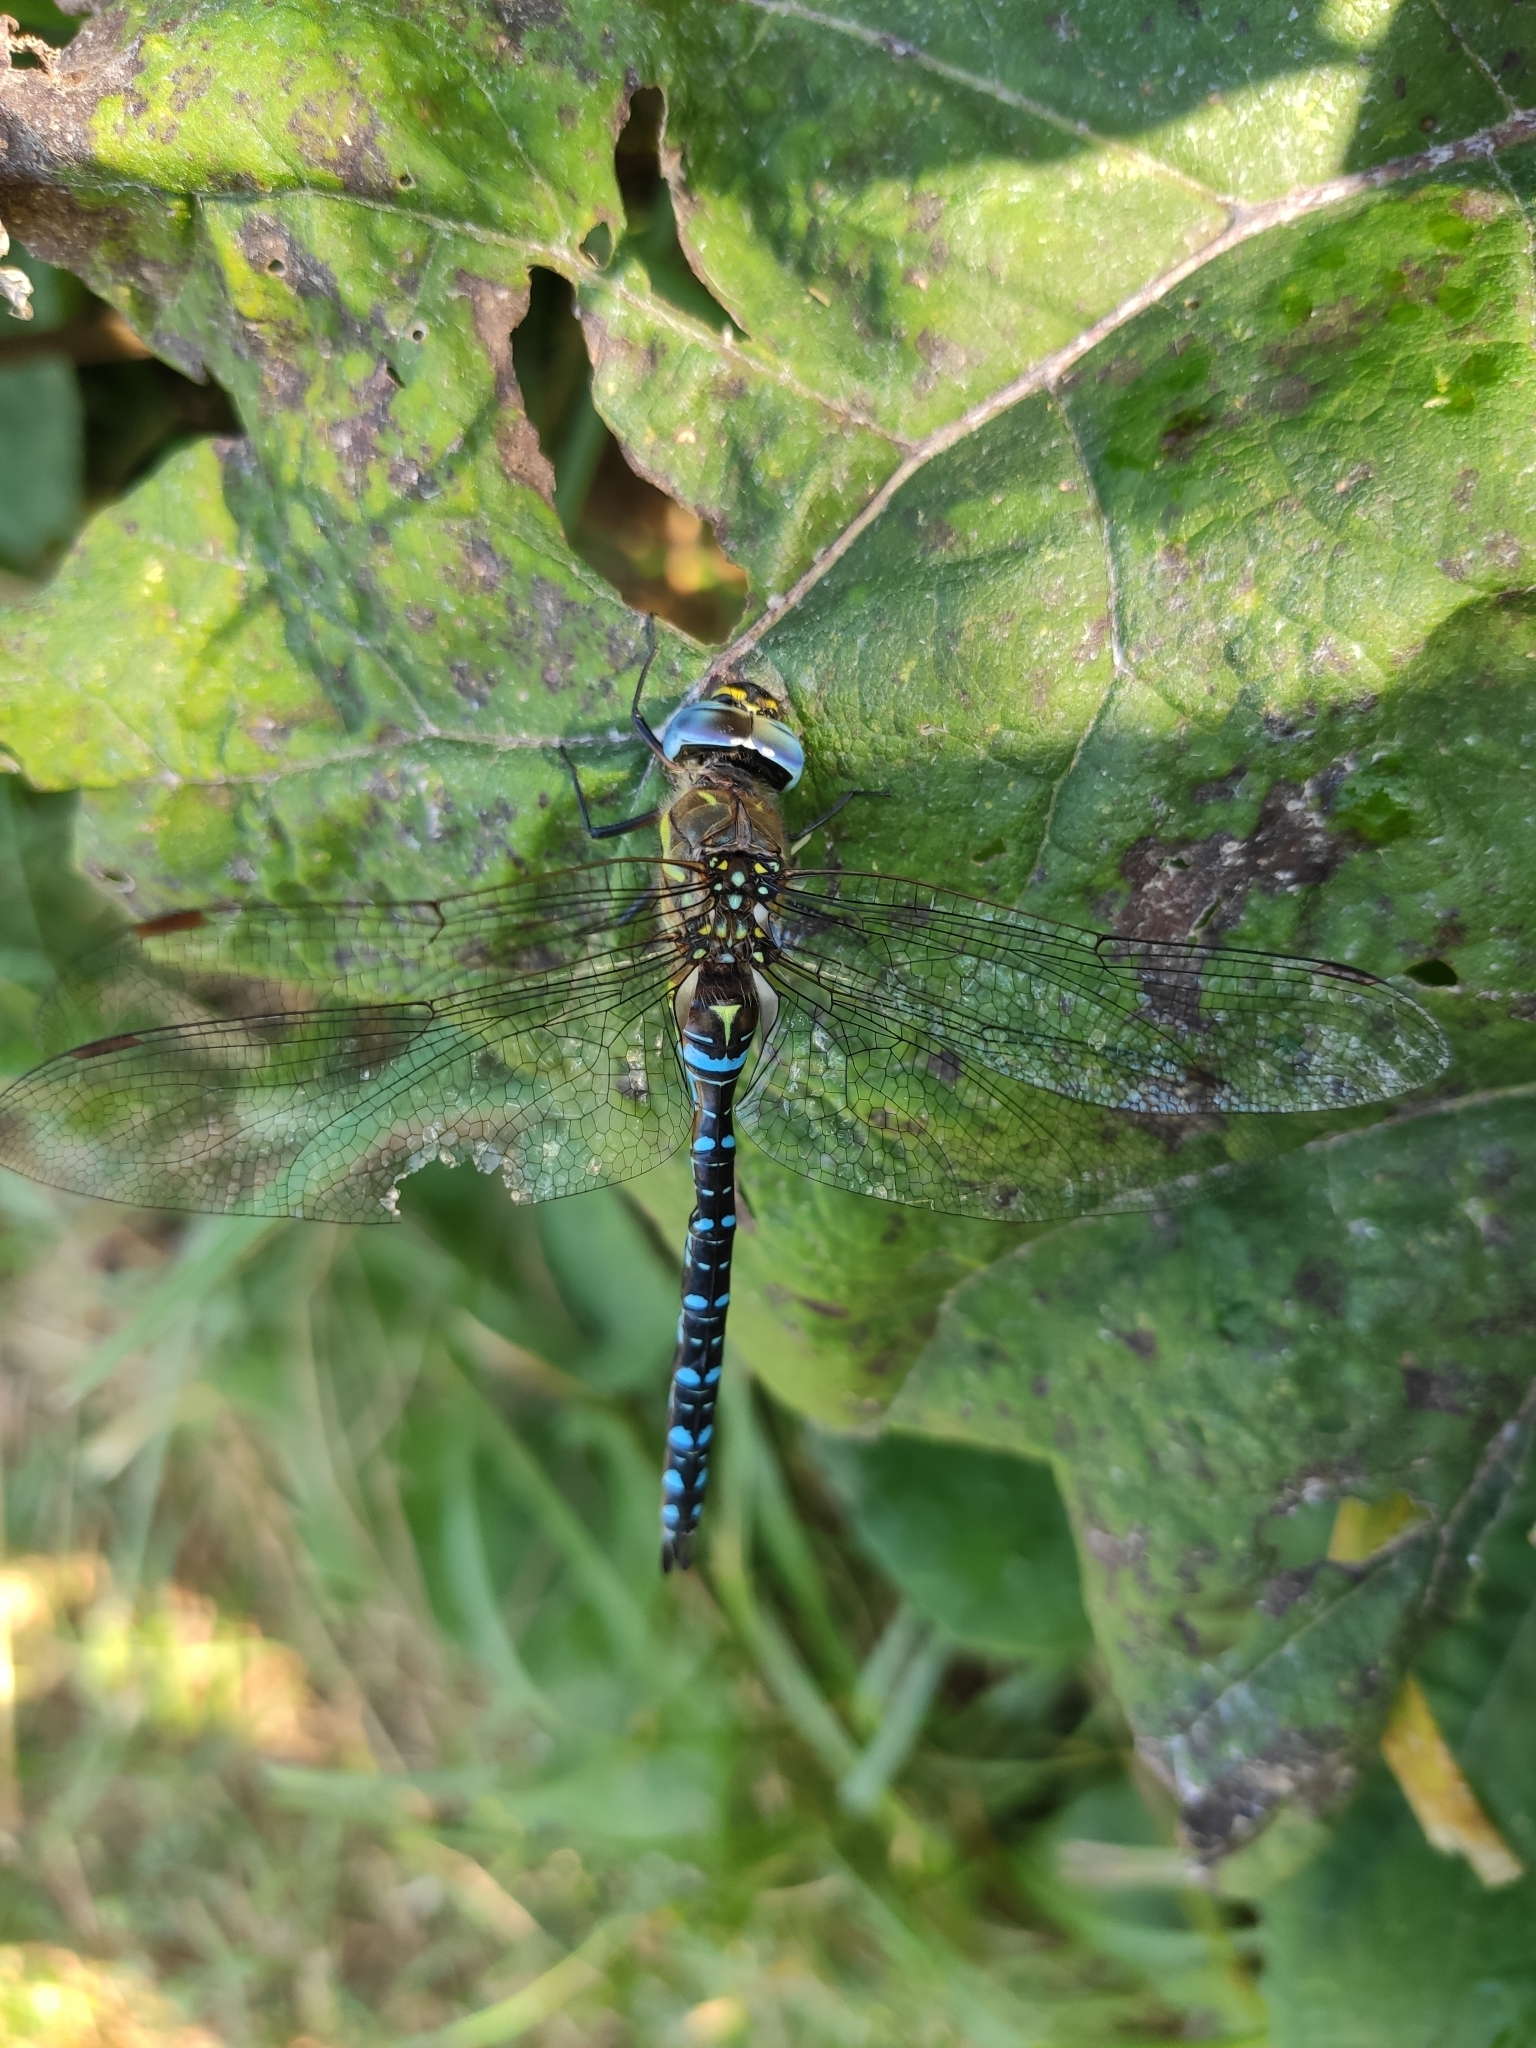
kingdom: Animalia
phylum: Arthropoda
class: Insecta
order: Odonata
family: Aeshnidae
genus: Aeshna
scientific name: Aeshna mixta
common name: Migrant hawker
